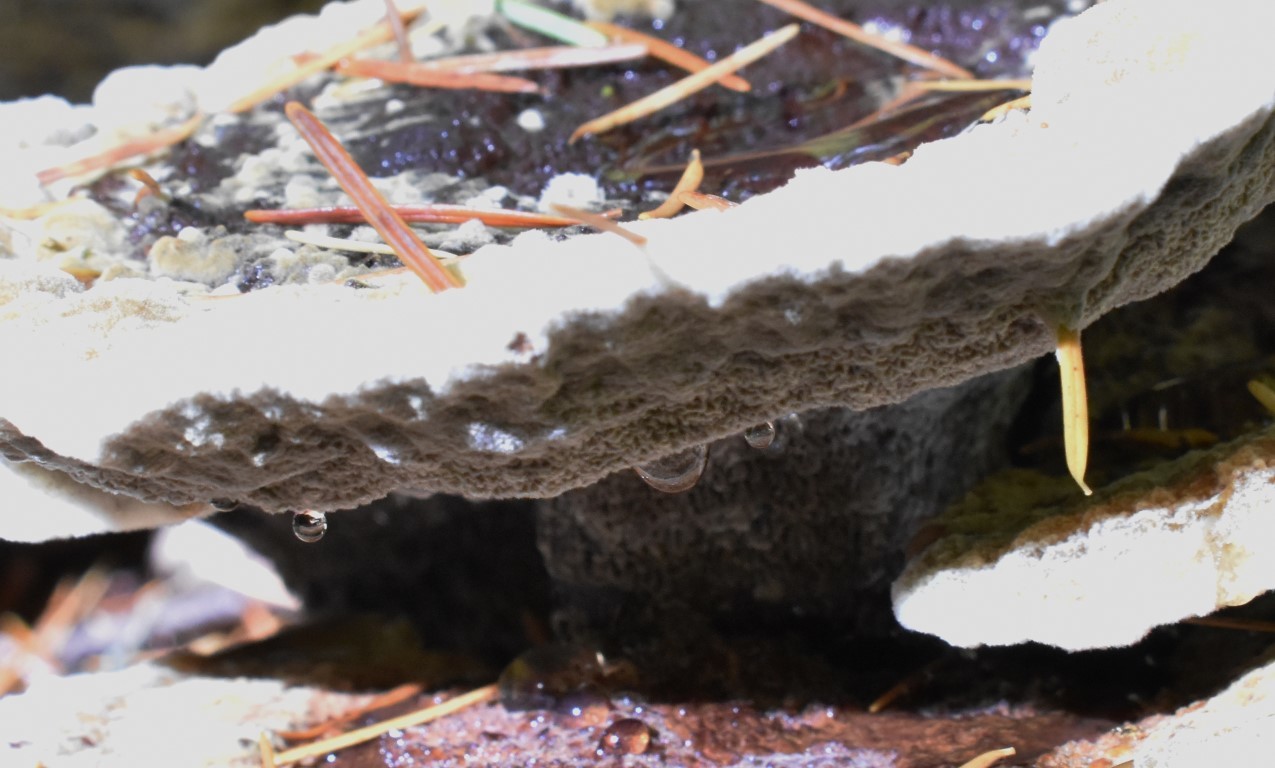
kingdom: Fungi
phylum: Basidiomycota
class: Agaricomycetes
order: Polyporales
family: Laetiporaceae
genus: Phaeolus
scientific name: Phaeolus schweinitzii
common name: Dyer's mazegill
